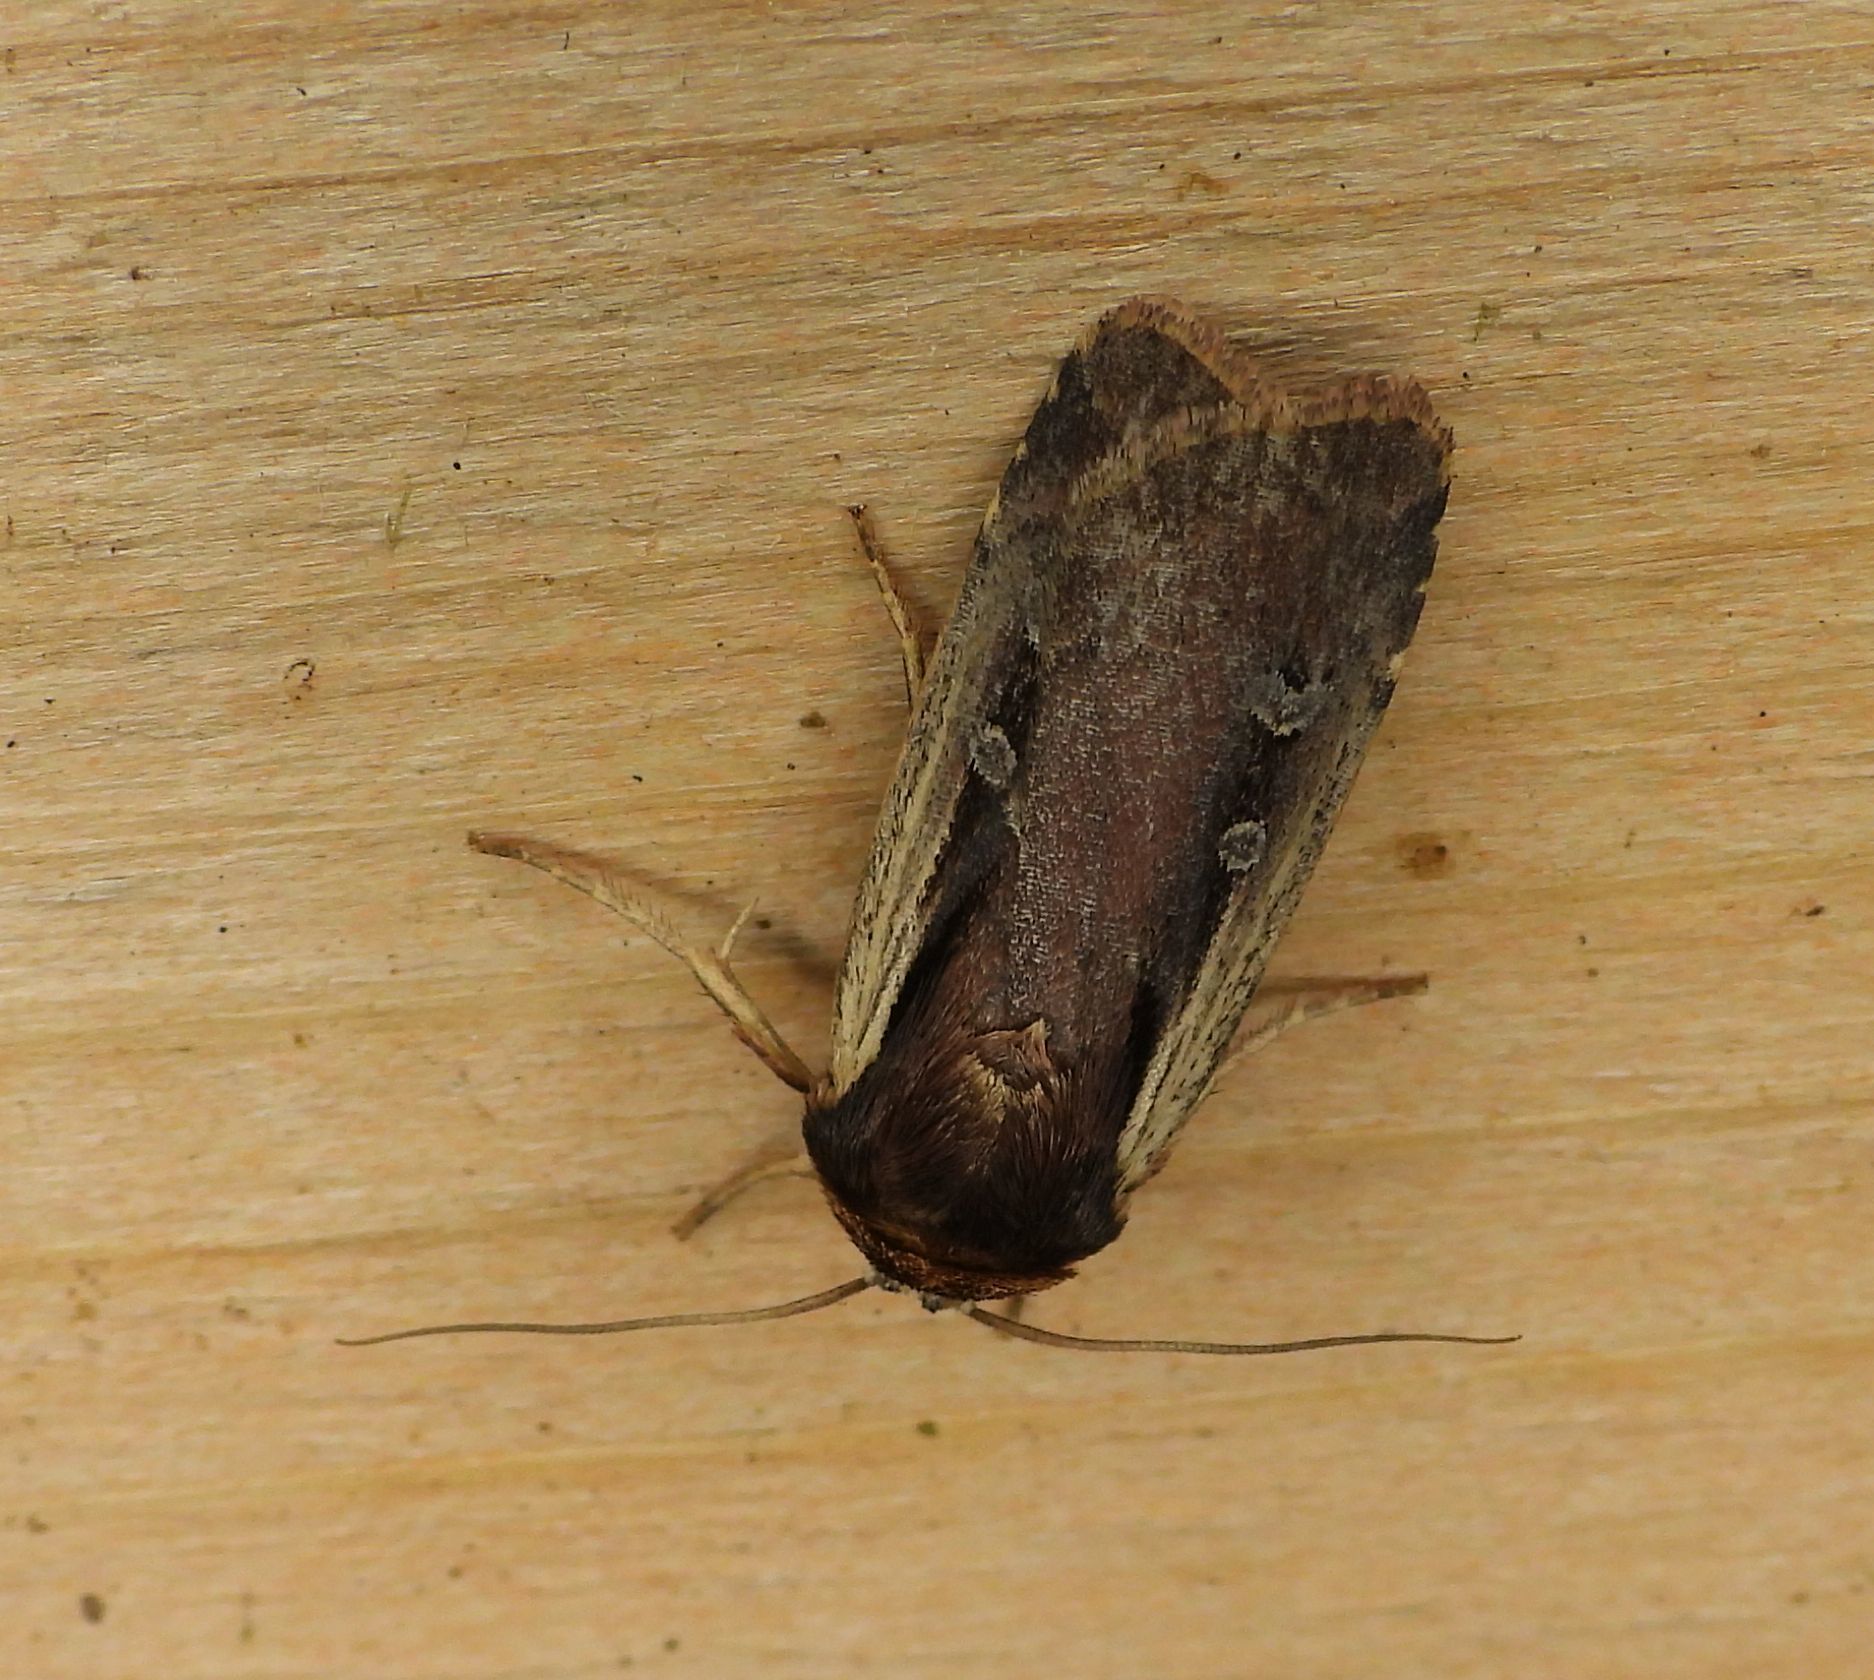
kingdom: Animalia
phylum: Arthropoda
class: Insecta
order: Lepidoptera
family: Noctuidae
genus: Ochropleura
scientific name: Ochropleura implecta
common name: Flame-shouldered dart
